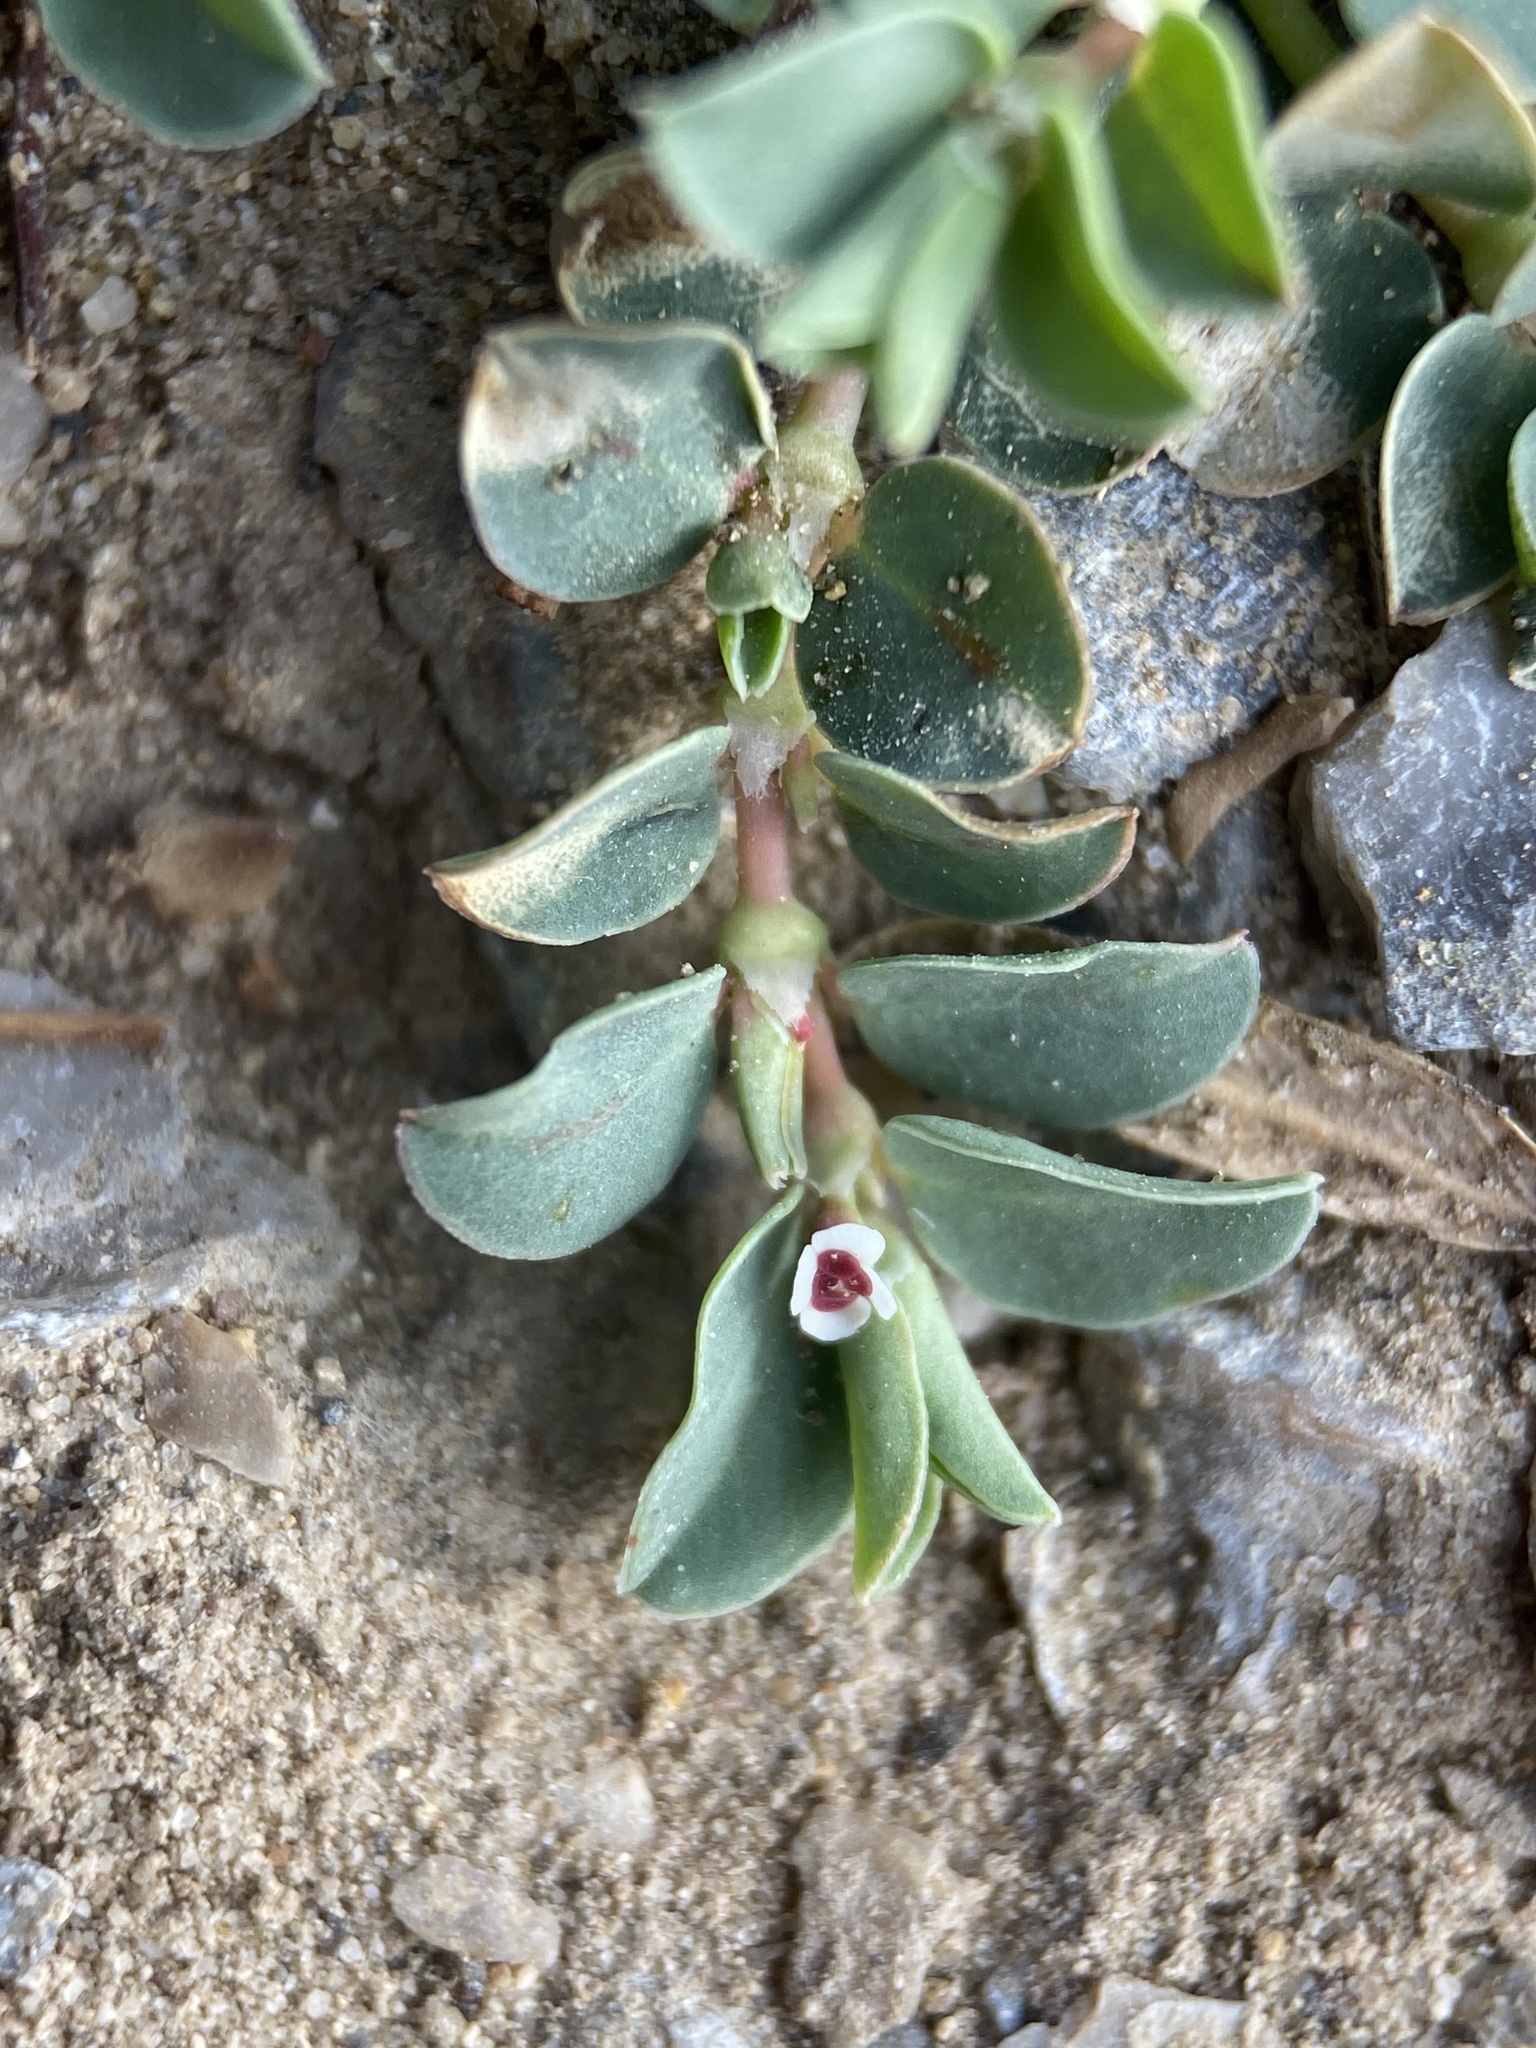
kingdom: Plantae
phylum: Tracheophyta
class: Magnoliopsida
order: Malpighiales
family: Euphorbiaceae
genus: Euphorbia
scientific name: Euphorbia albomarginata
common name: Whitemargin sandmat
